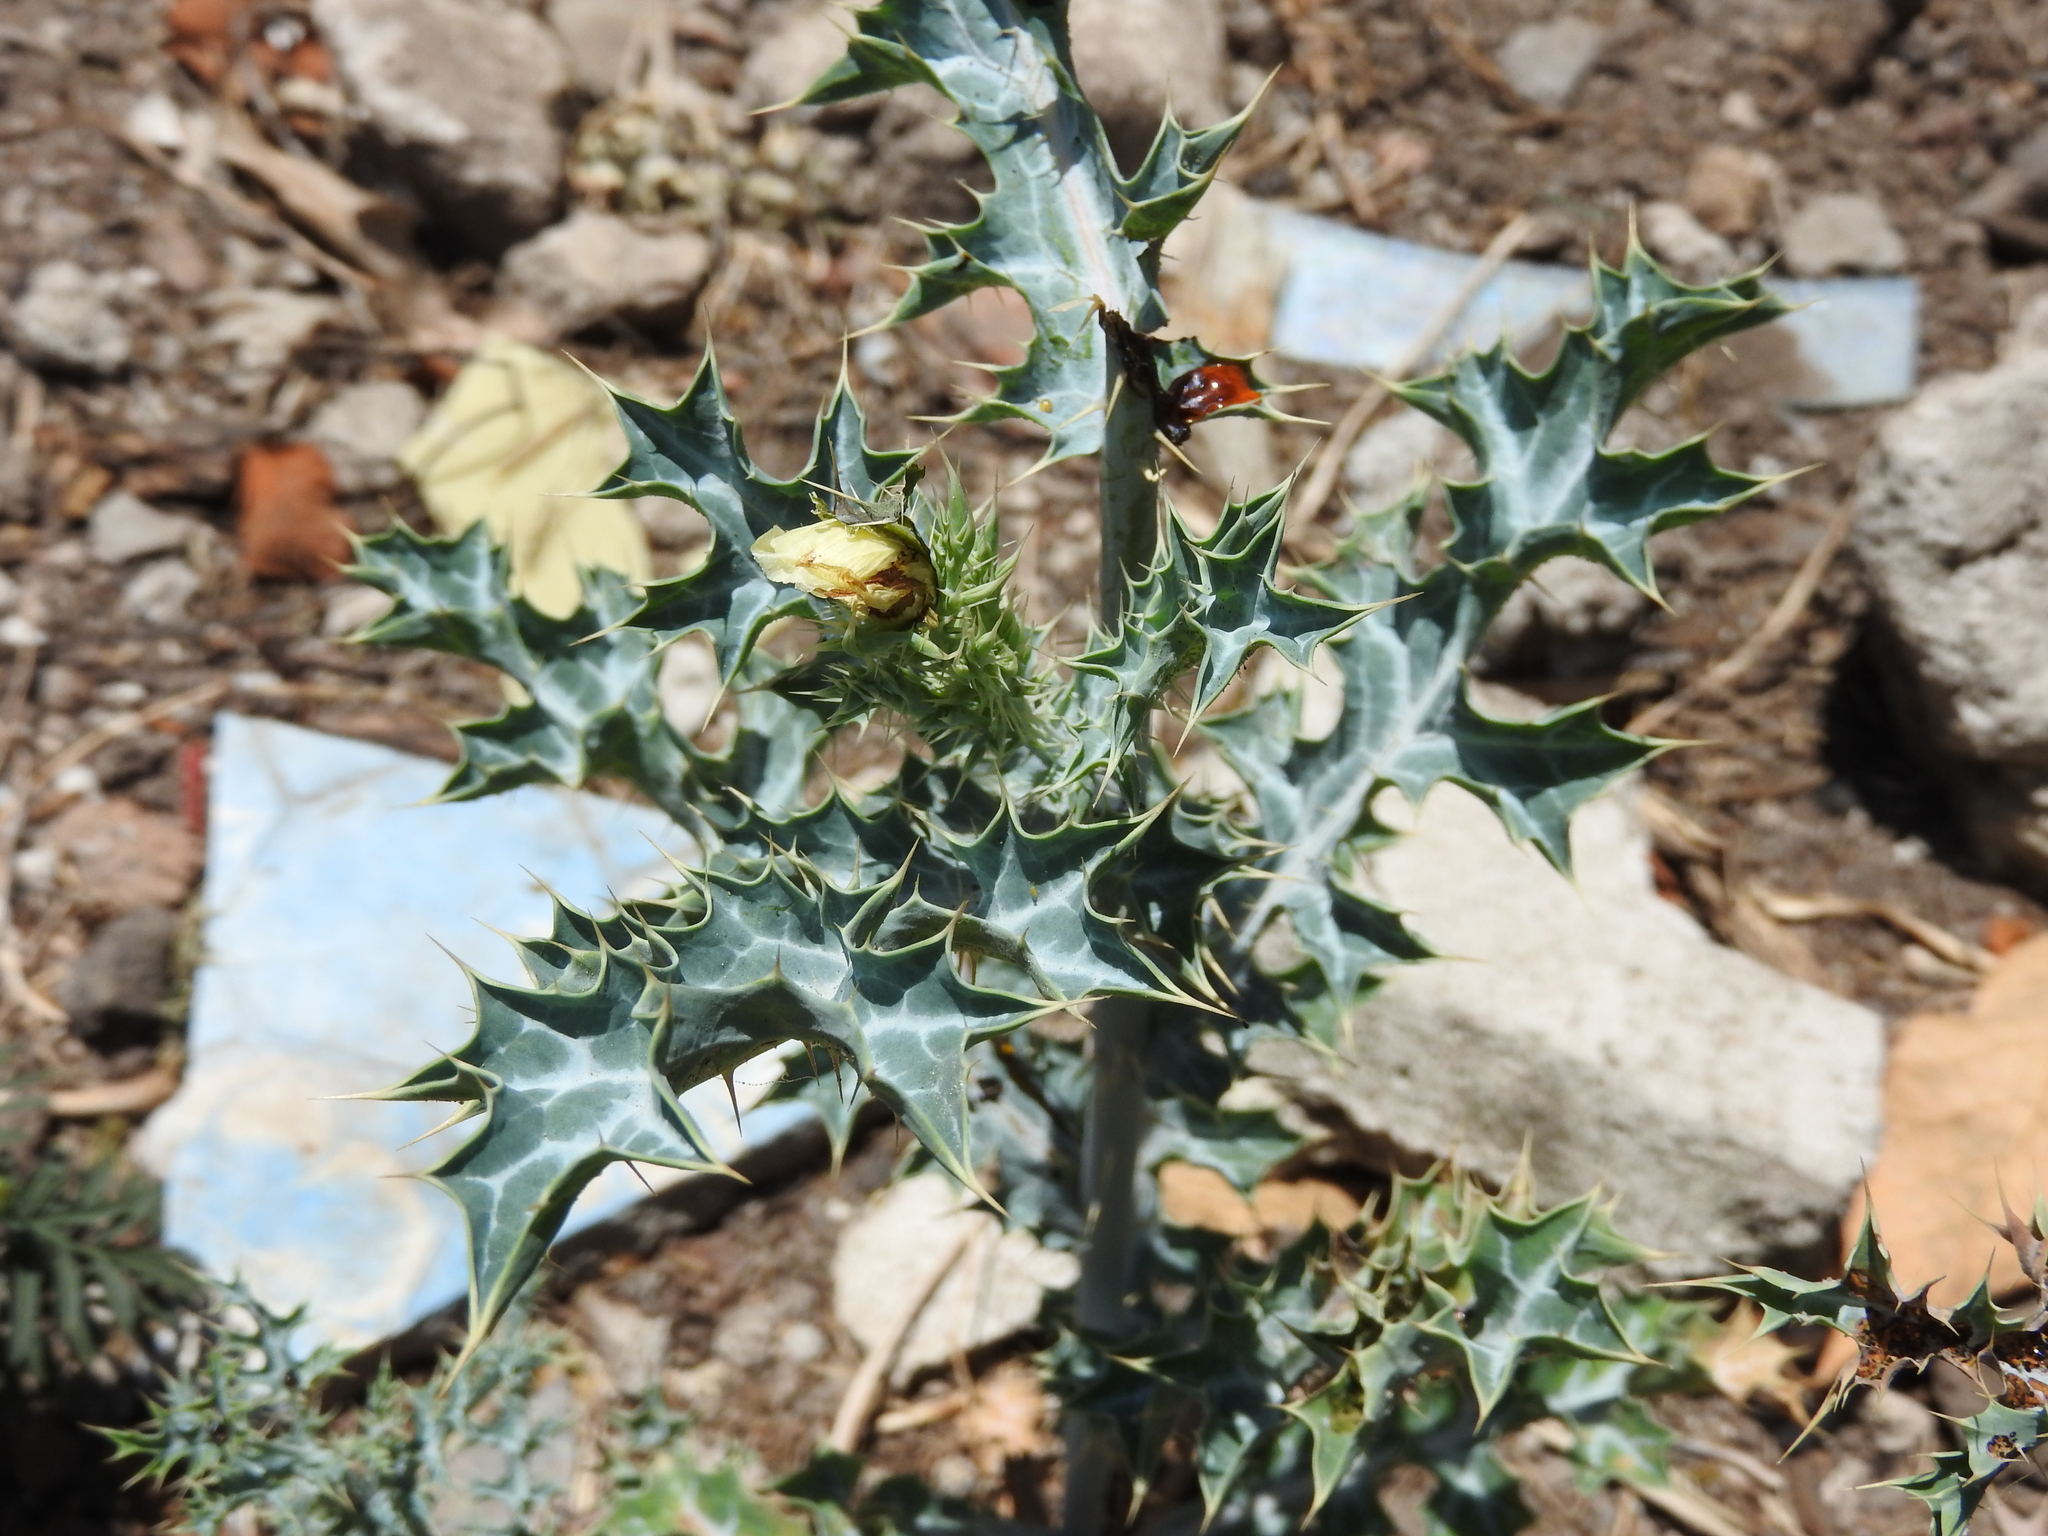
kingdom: Plantae
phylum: Tracheophyta
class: Magnoliopsida
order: Ranunculales
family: Papaveraceae
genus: Argemone
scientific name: Argemone ochroleuca
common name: White-flower mexican-poppy
